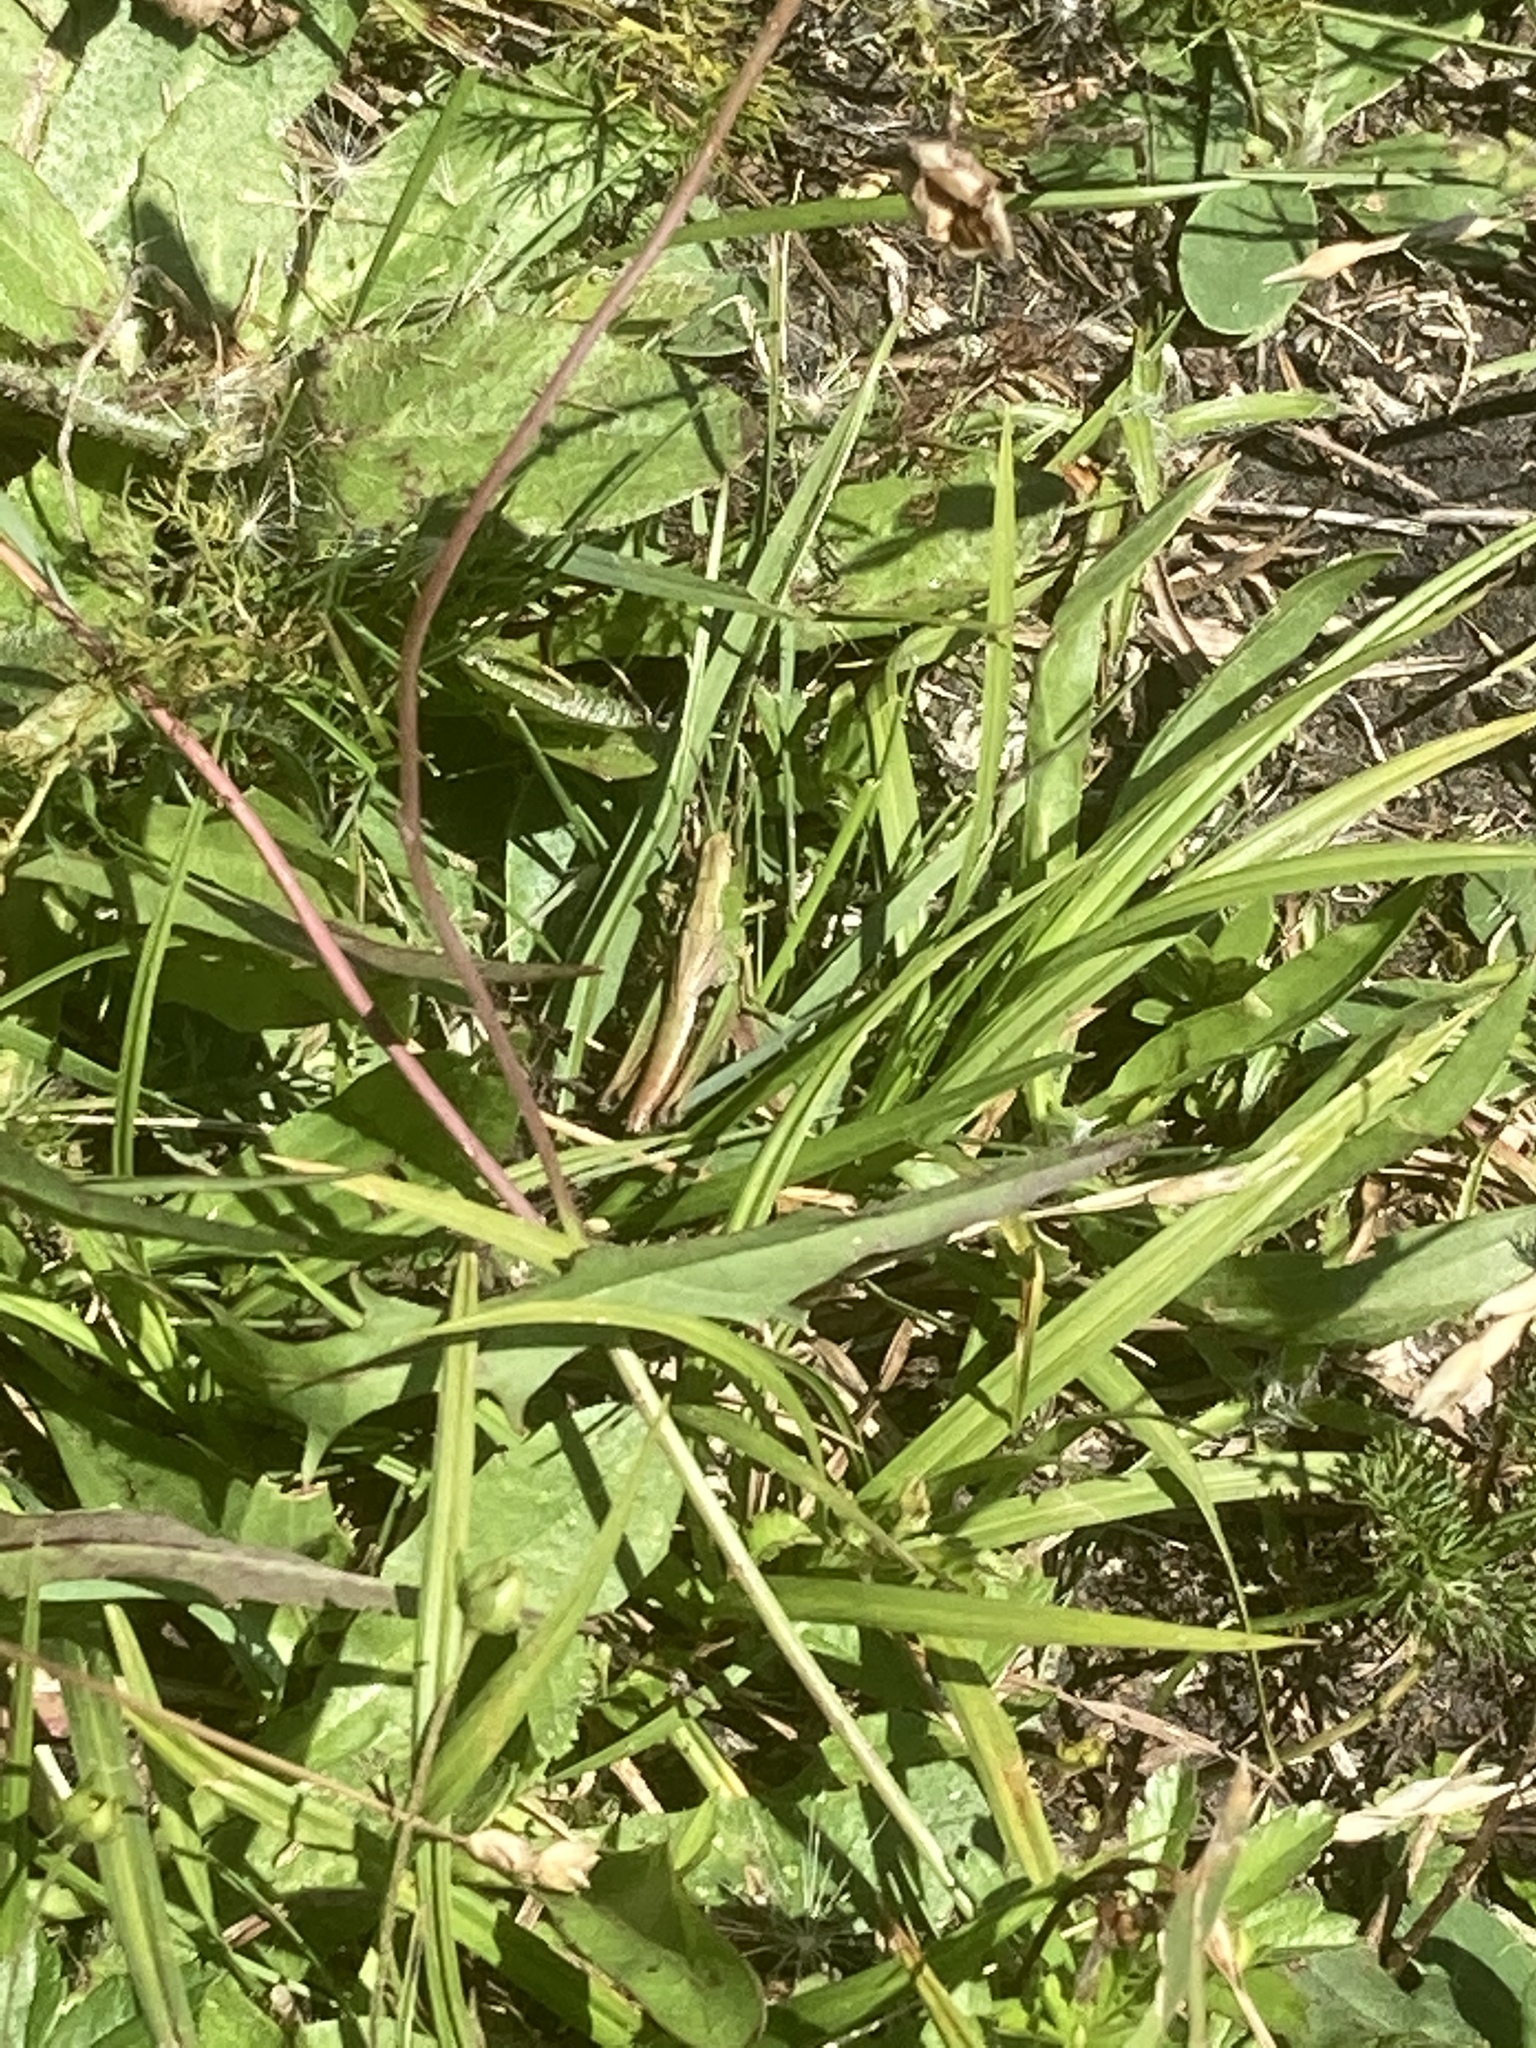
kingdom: Plantae
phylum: Tracheophyta
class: Magnoliopsida
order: Asterales
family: Asteraceae
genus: Scorzoneroides
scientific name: Scorzoneroides autumnalis
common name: Autumn hawkbit
